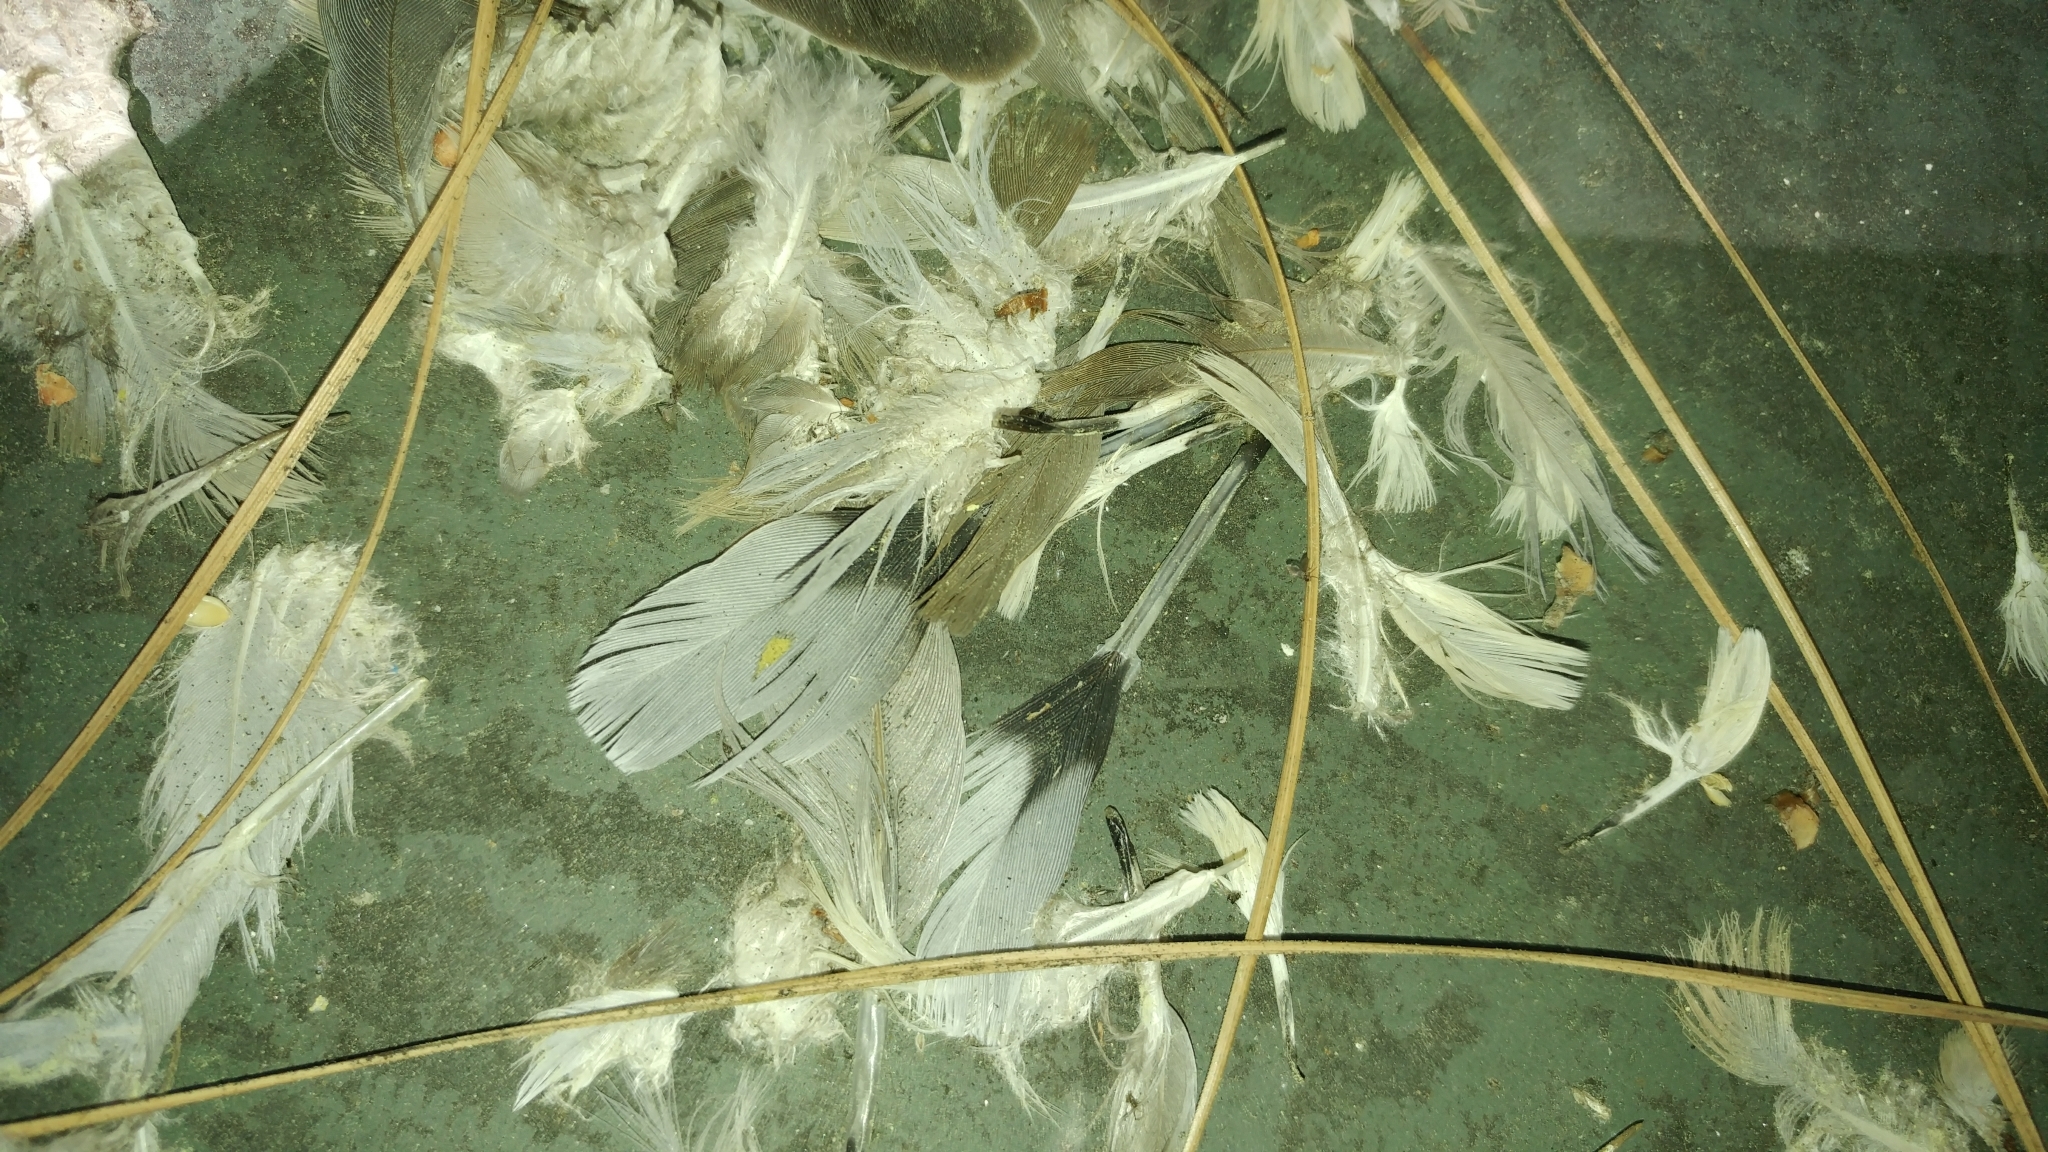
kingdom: Animalia
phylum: Chordata
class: Aves
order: Columbiformes
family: Columbidae
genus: Zenaida
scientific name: Zenaida macroura
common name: Mourning dove
